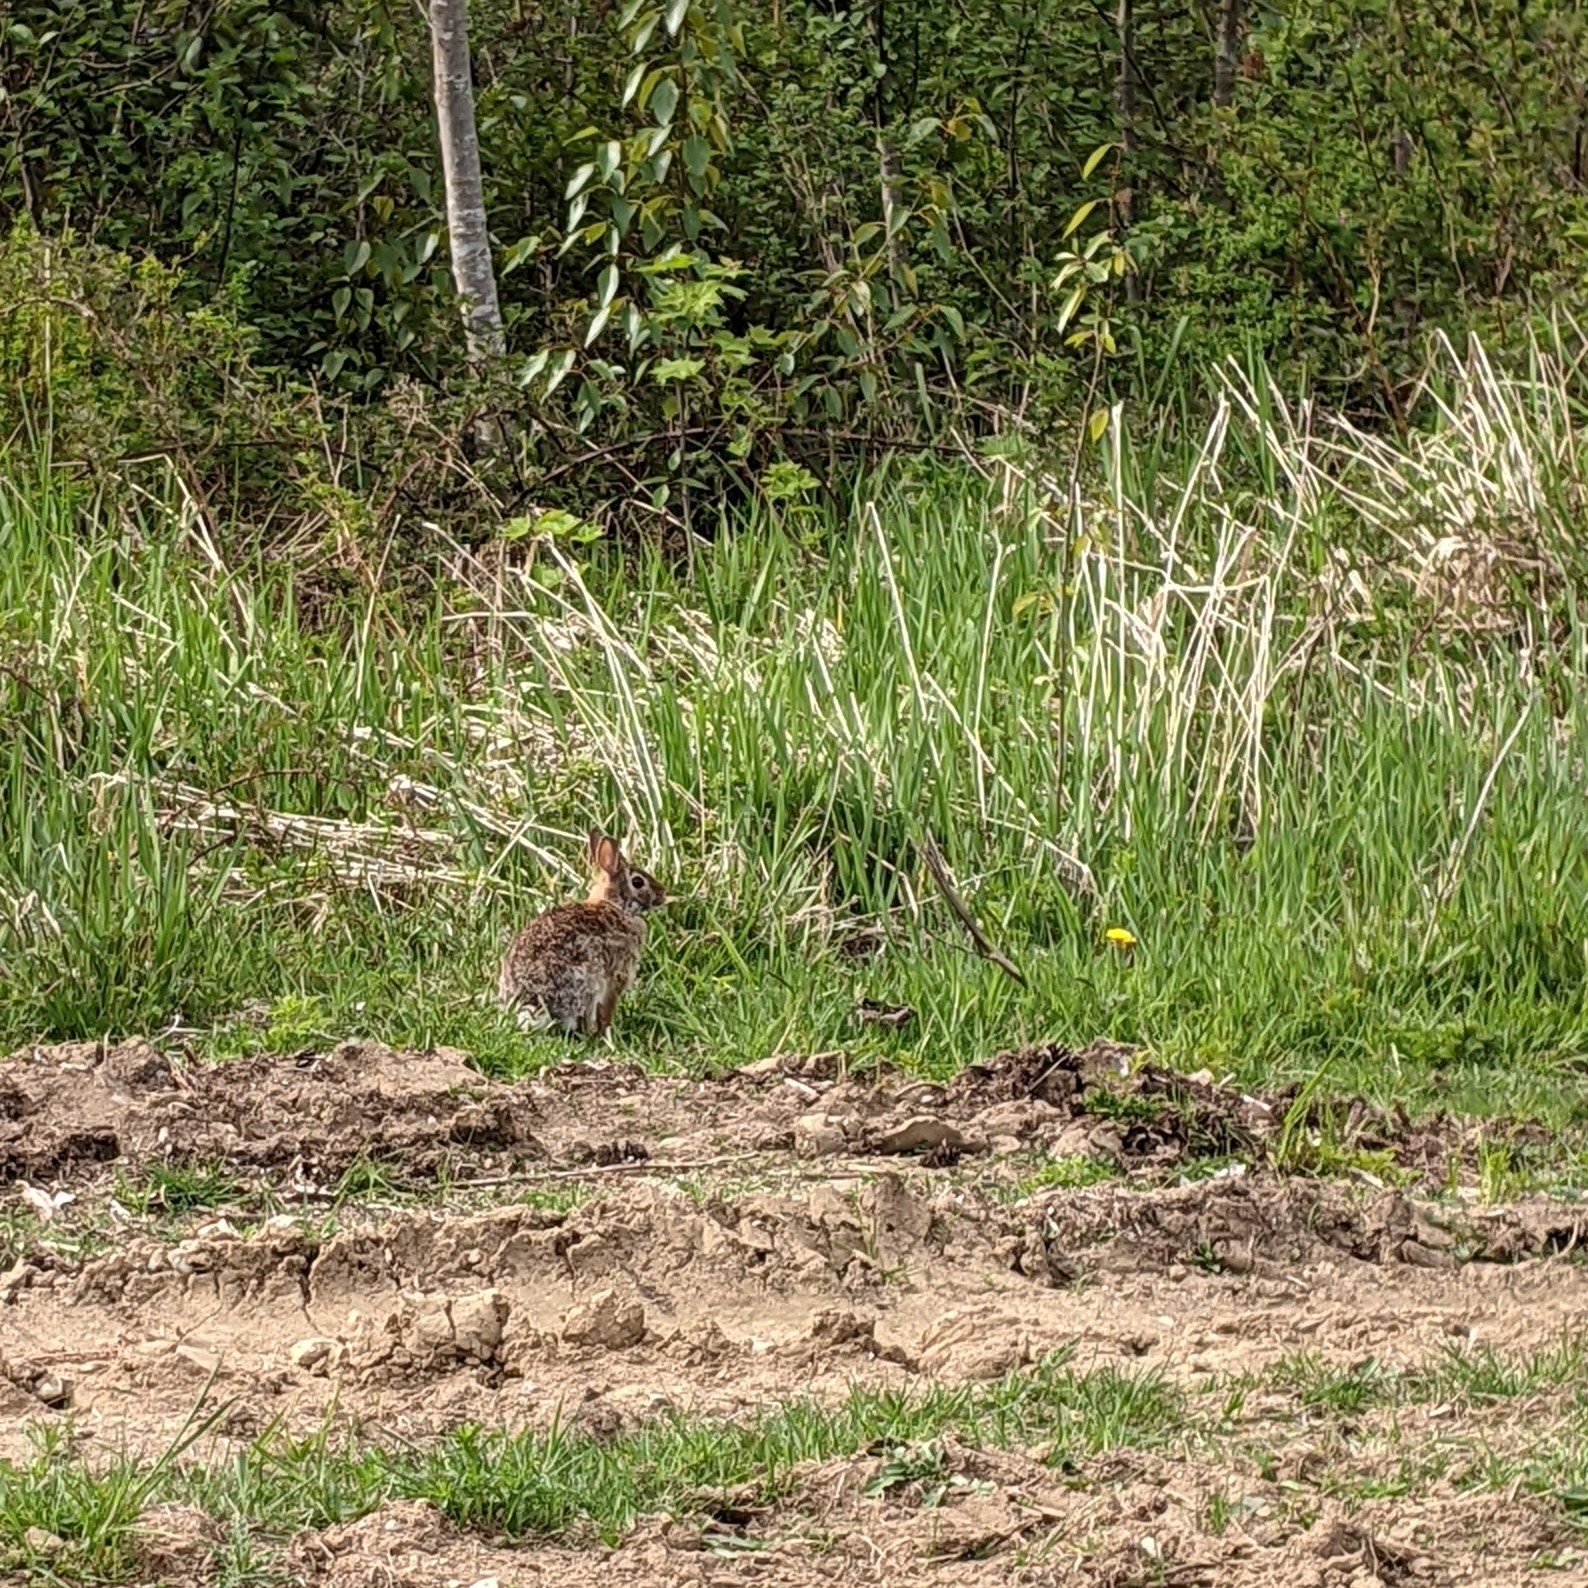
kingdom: Animalia
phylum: Chordata
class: Mammalia
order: Lagomorpha
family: Leporidae
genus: Sylvilagus
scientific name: Sylvilagus floridanus
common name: Eastern cottontail
